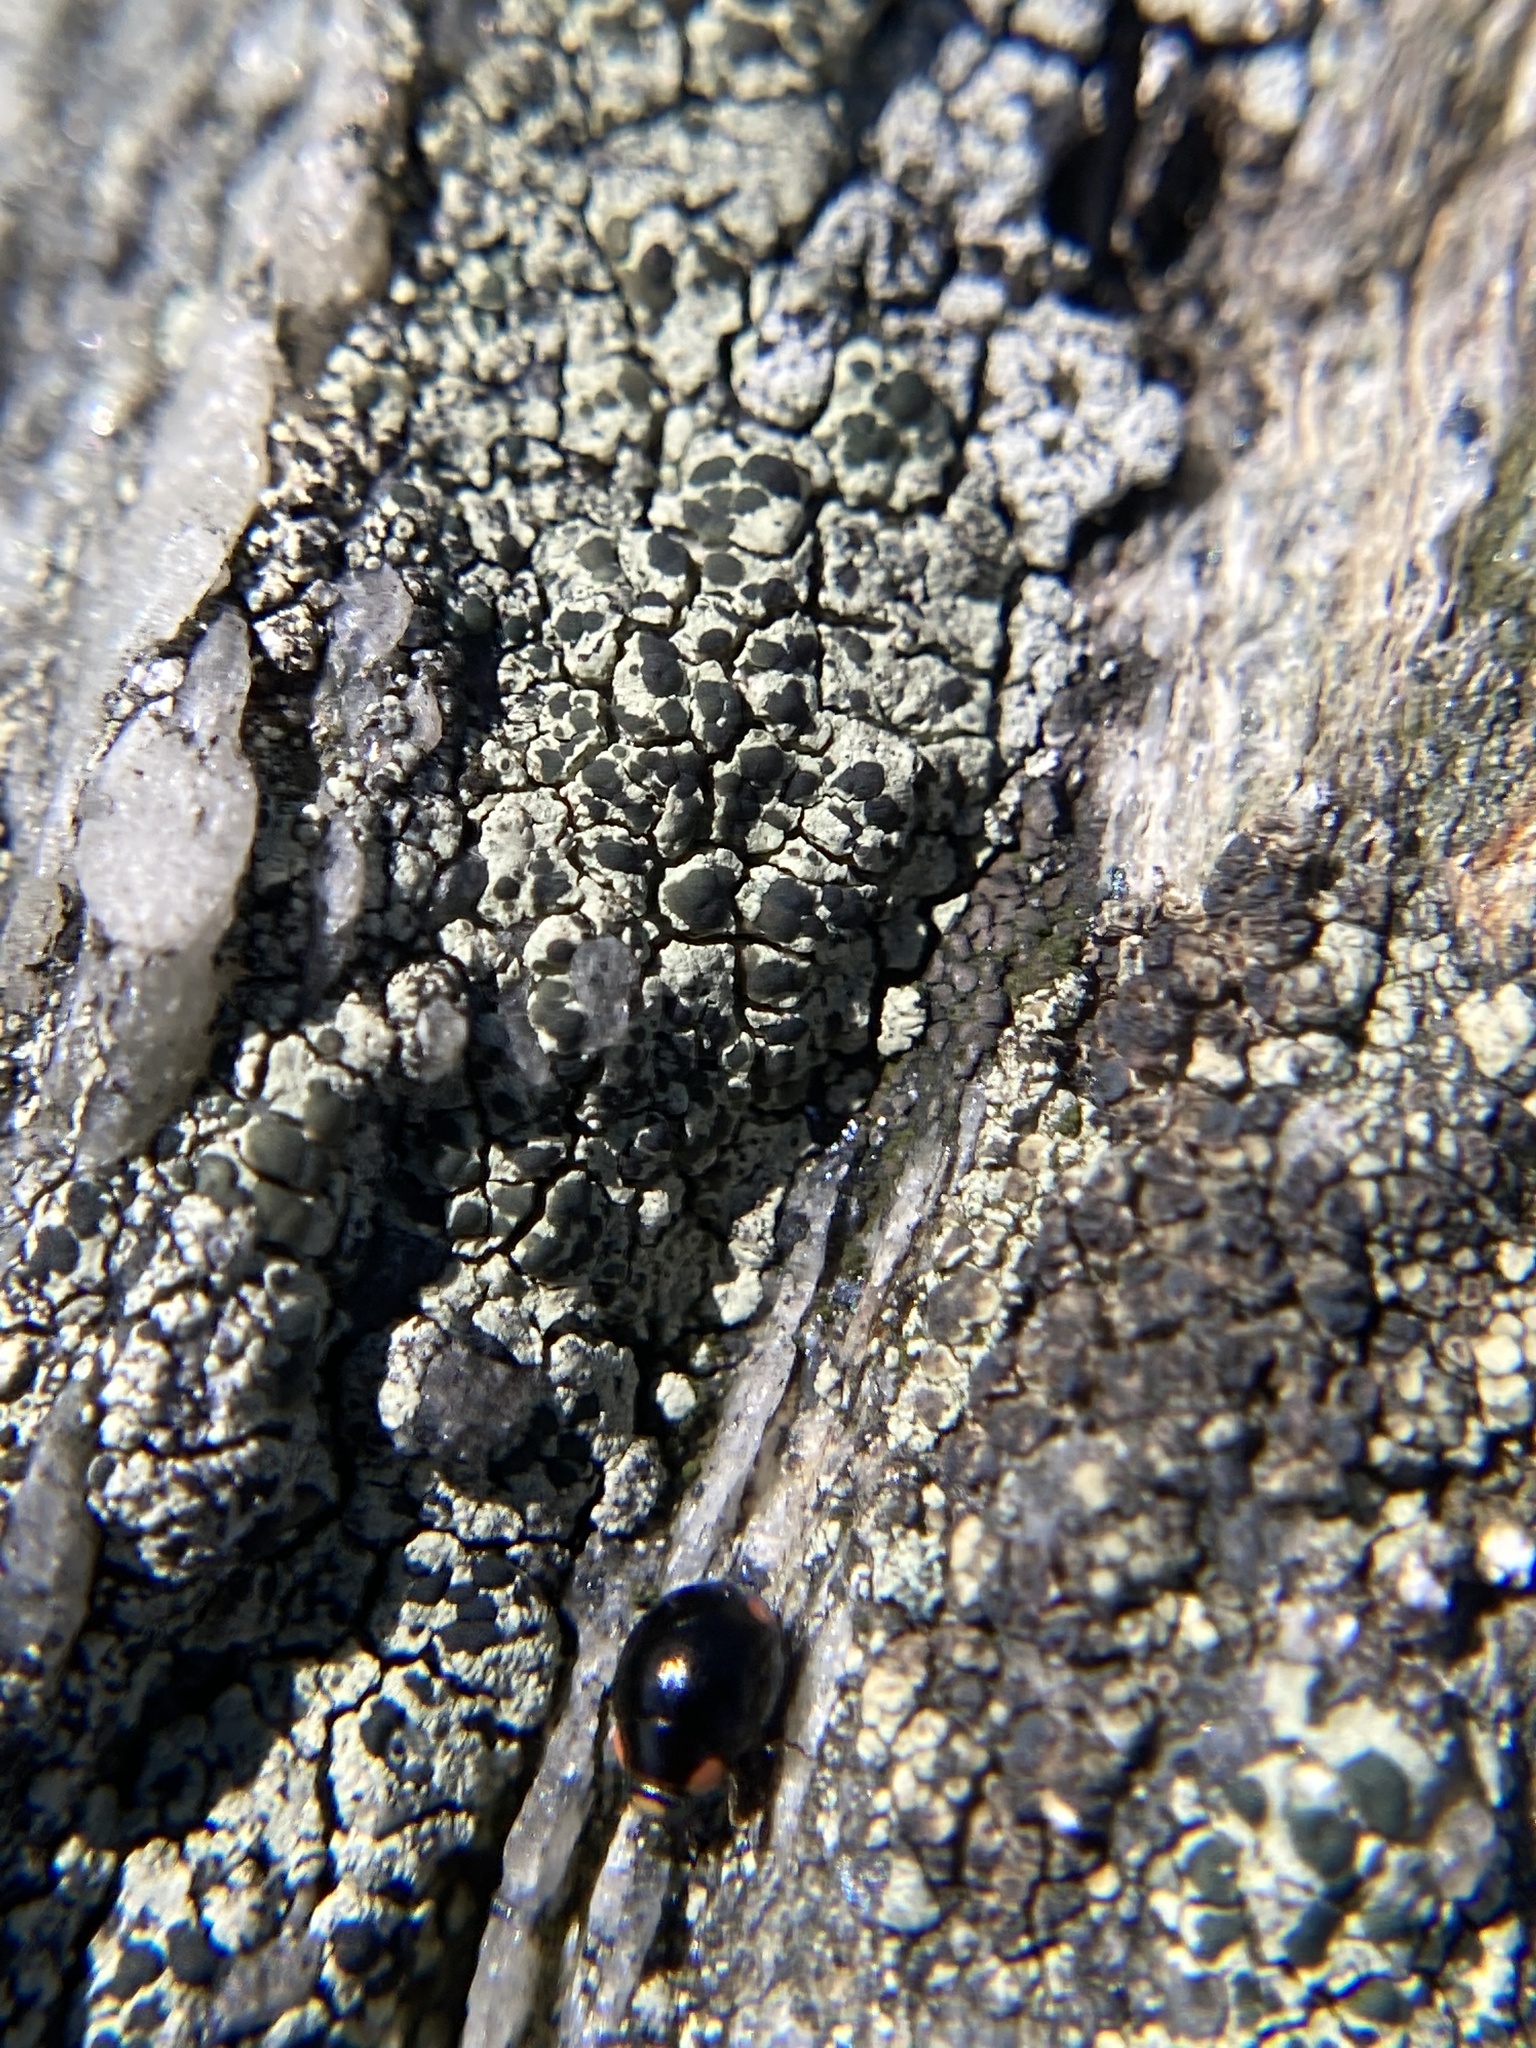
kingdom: Animalia
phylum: Arthropoda
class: Insecta
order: Coleoptera
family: Coccinellidae
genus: Hyperaspis
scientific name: Hyperaspis bigeminata
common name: Bigeminate sigil lady beetle
